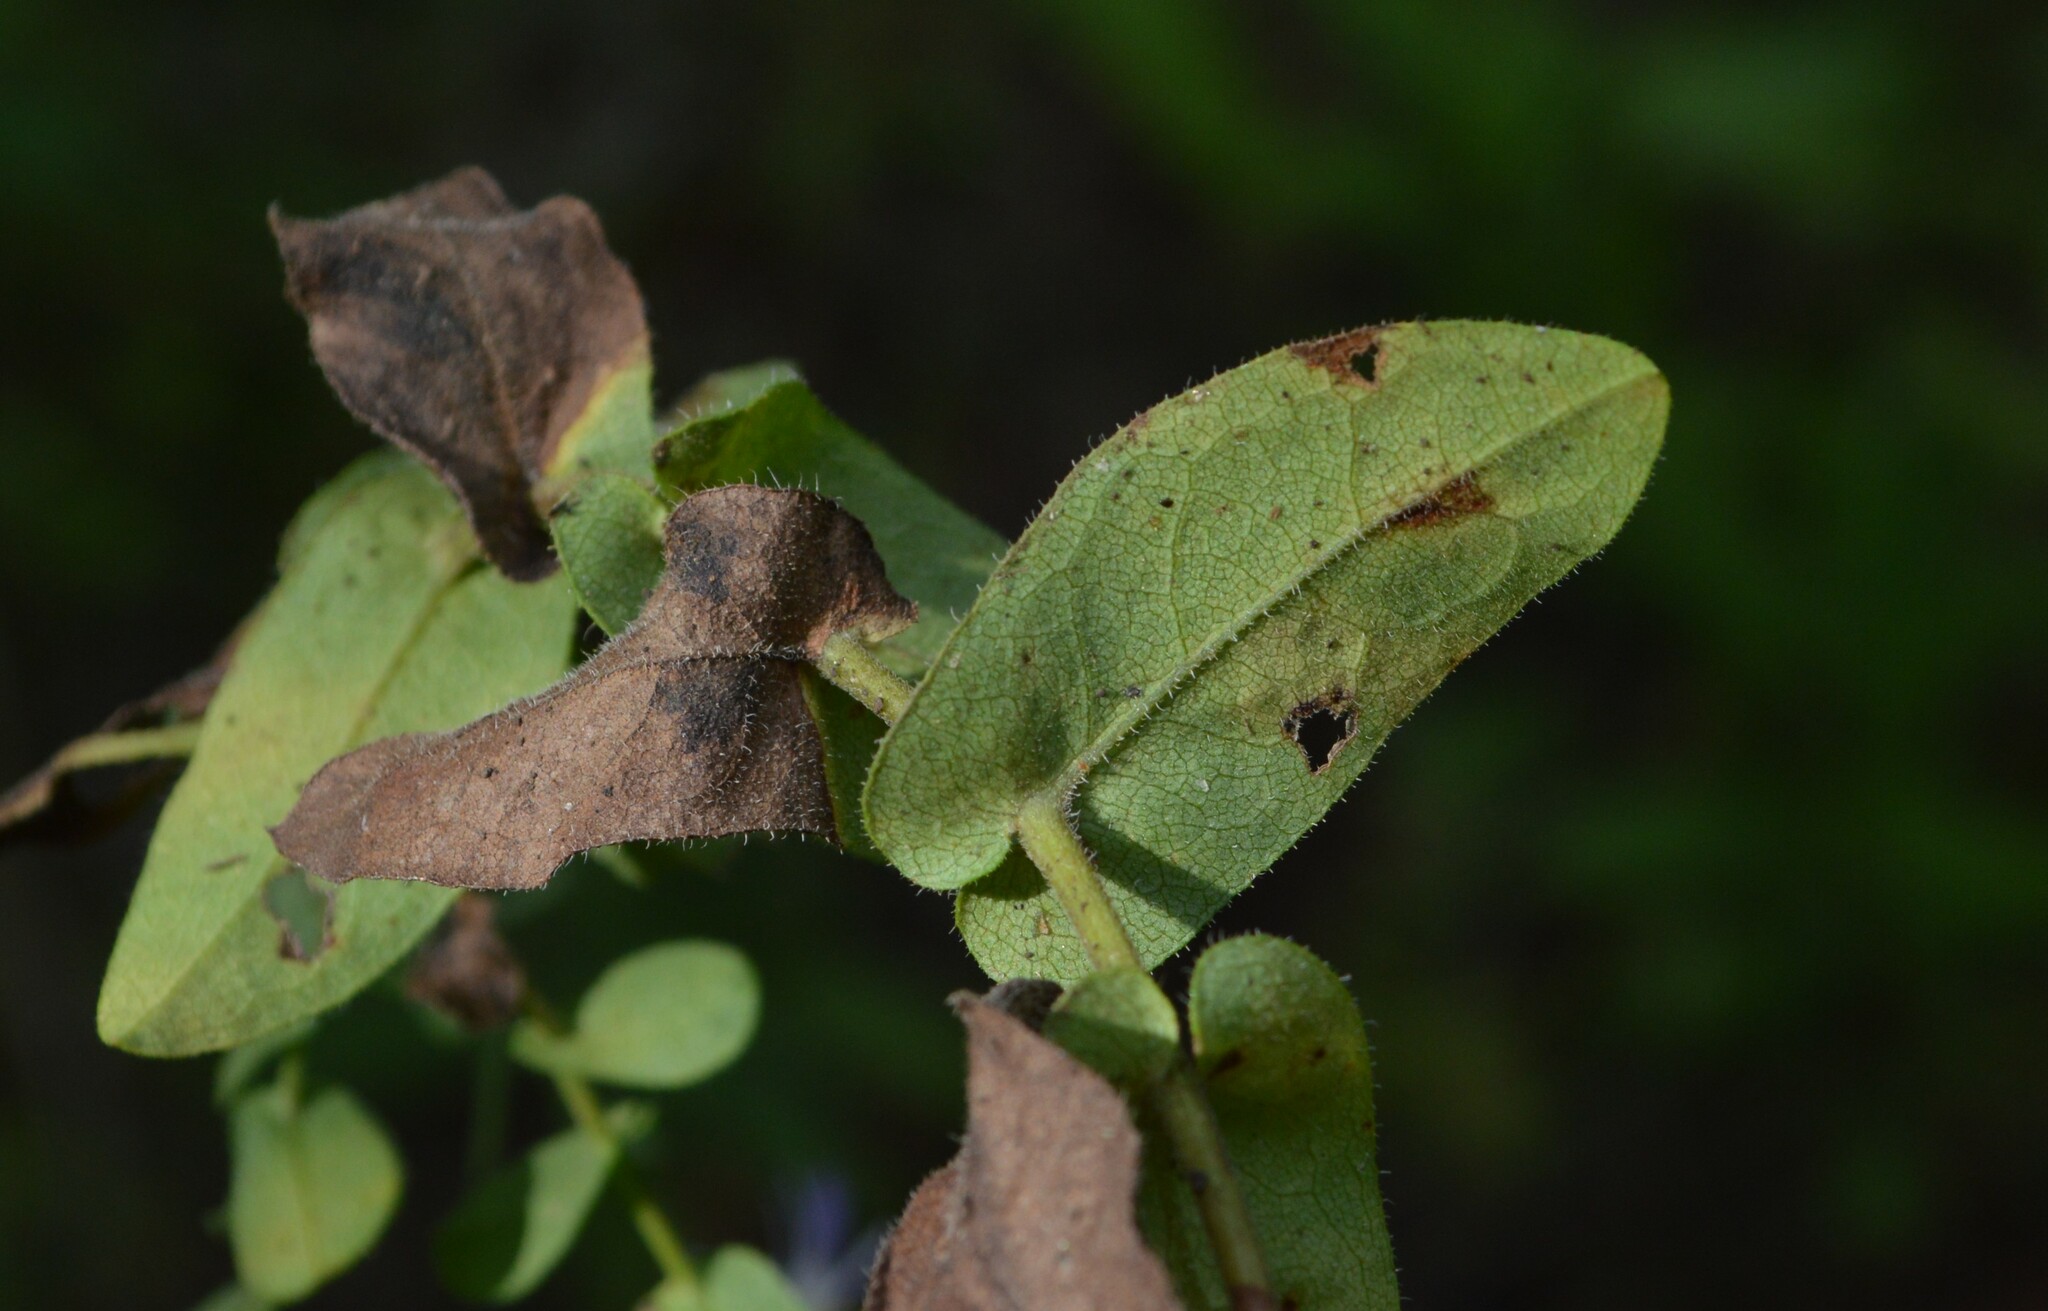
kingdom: Plantae
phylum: Tracheophyta
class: Magnoliopsida
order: Asterales
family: Asteraceae
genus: Symphyotrichum
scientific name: Symphyotrichum patens
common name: Late purple aster
